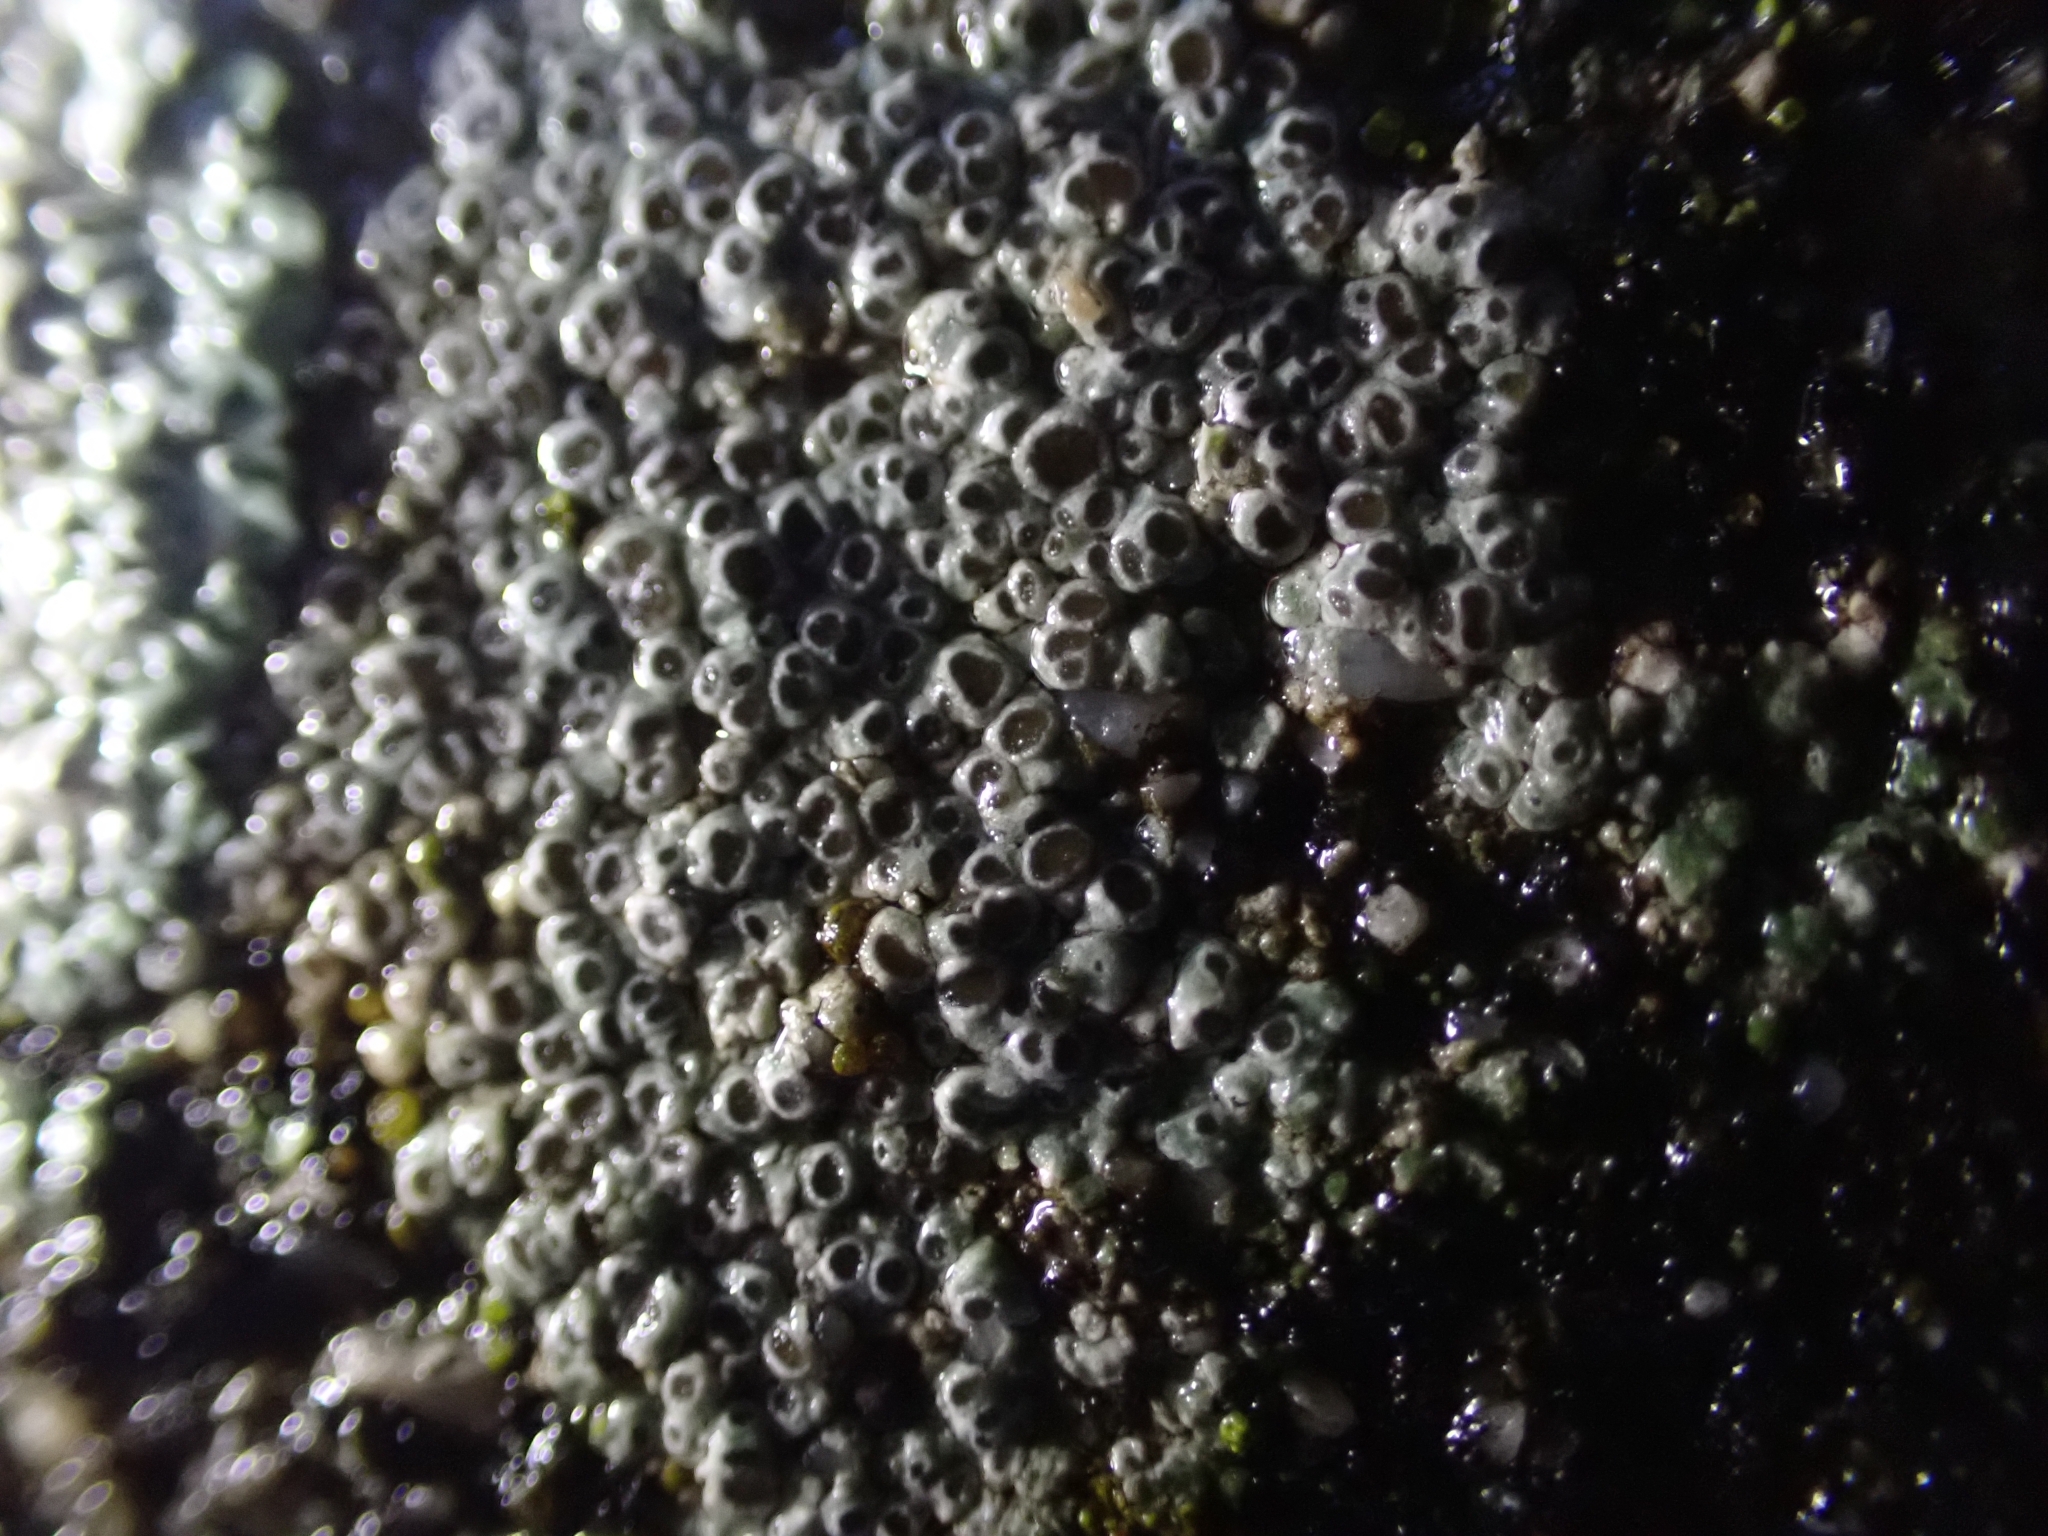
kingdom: Fungi
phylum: Ascomycota
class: Lecanoromycetes
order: Pertusariales
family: Megasporaceae
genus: Circinaria
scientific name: Circinaria contorta
